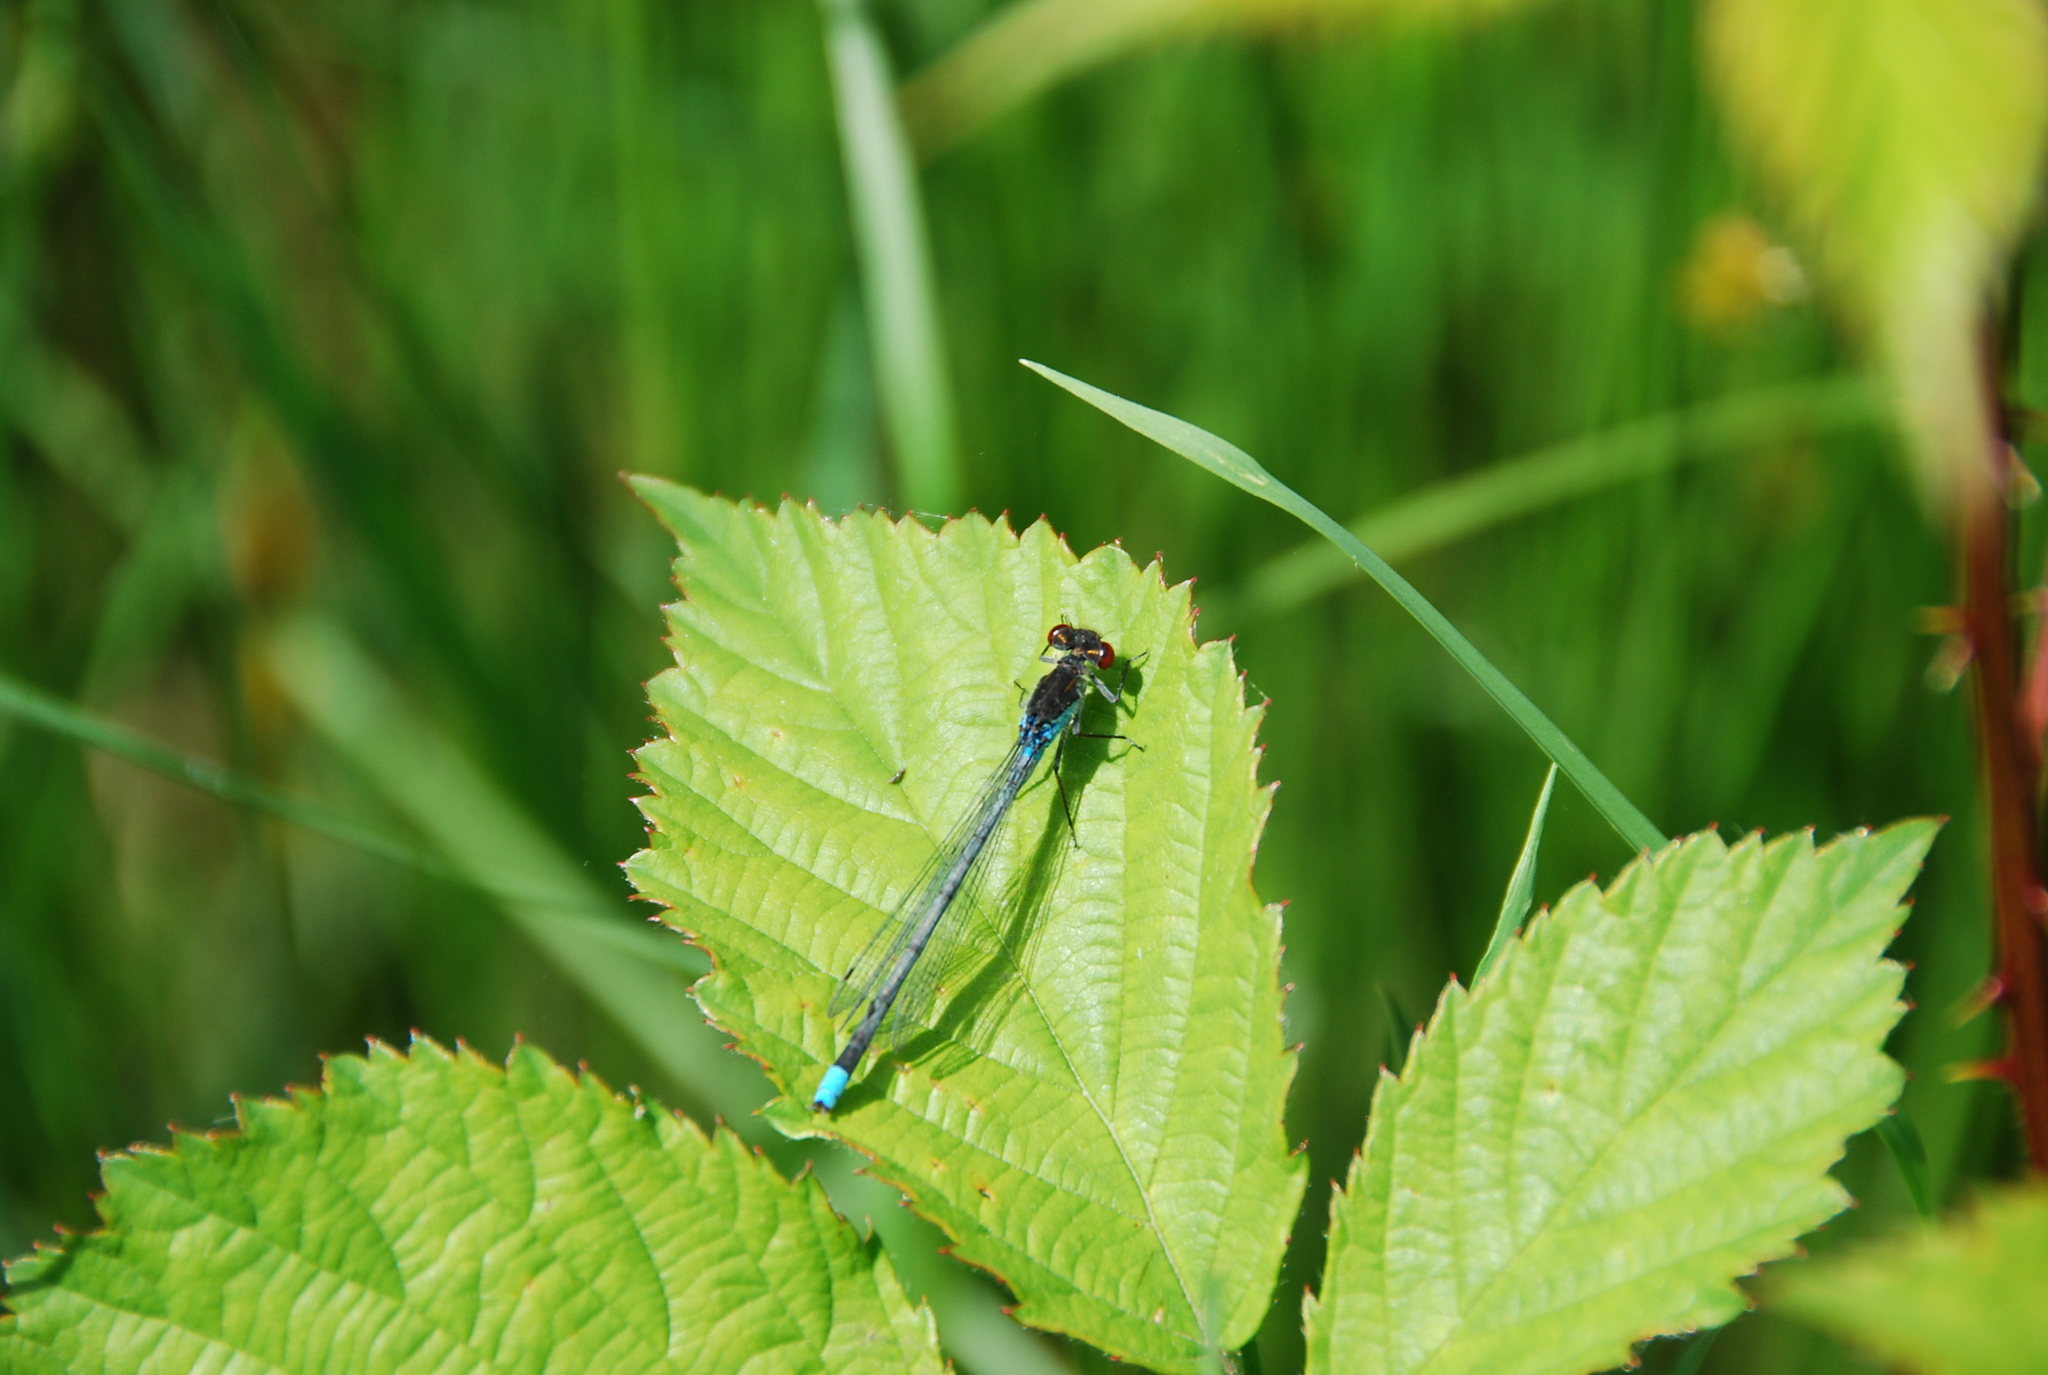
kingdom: Animalia
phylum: Arthropoda
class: Insecta
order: Odonata
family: Coenagrionidae
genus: Erythromma
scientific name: Erythromma najas
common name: Red-eyed damselfly
